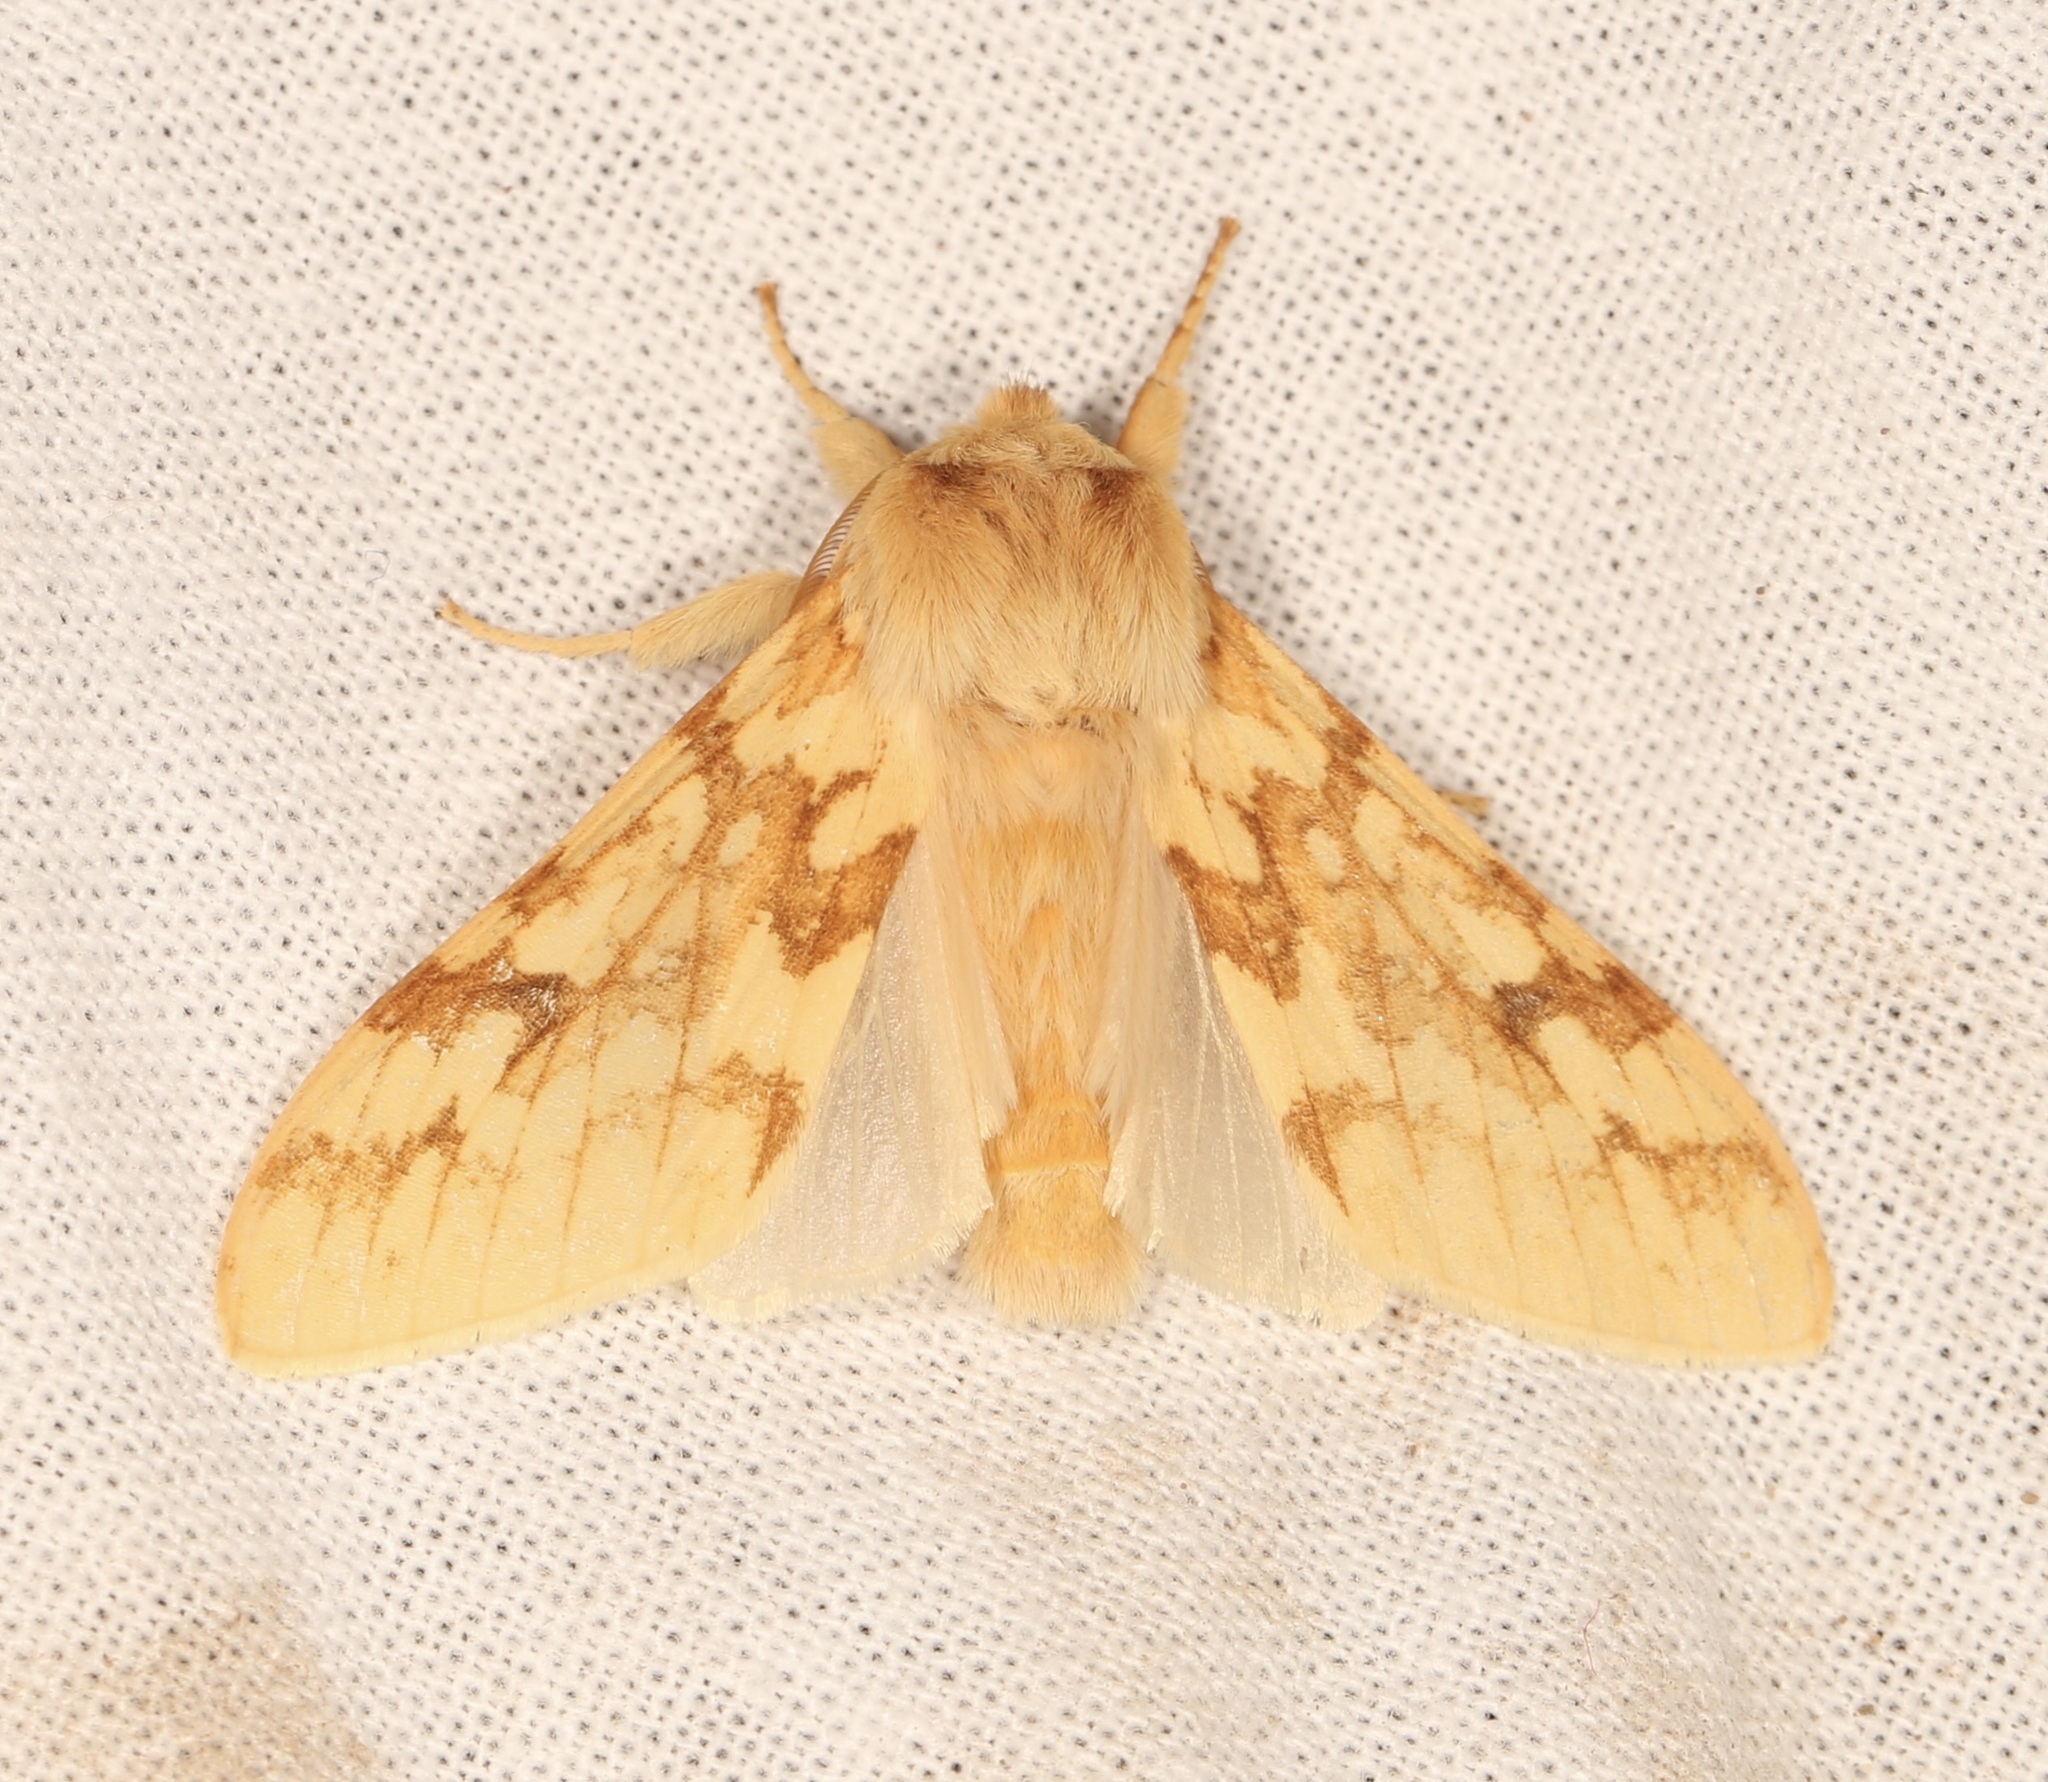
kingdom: Animalia
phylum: Arthropoda
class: Insecta
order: Lepidoptera
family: Erebidae
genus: Lophocampa
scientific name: Lophocampa maculata
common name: Spotted tussock moth
